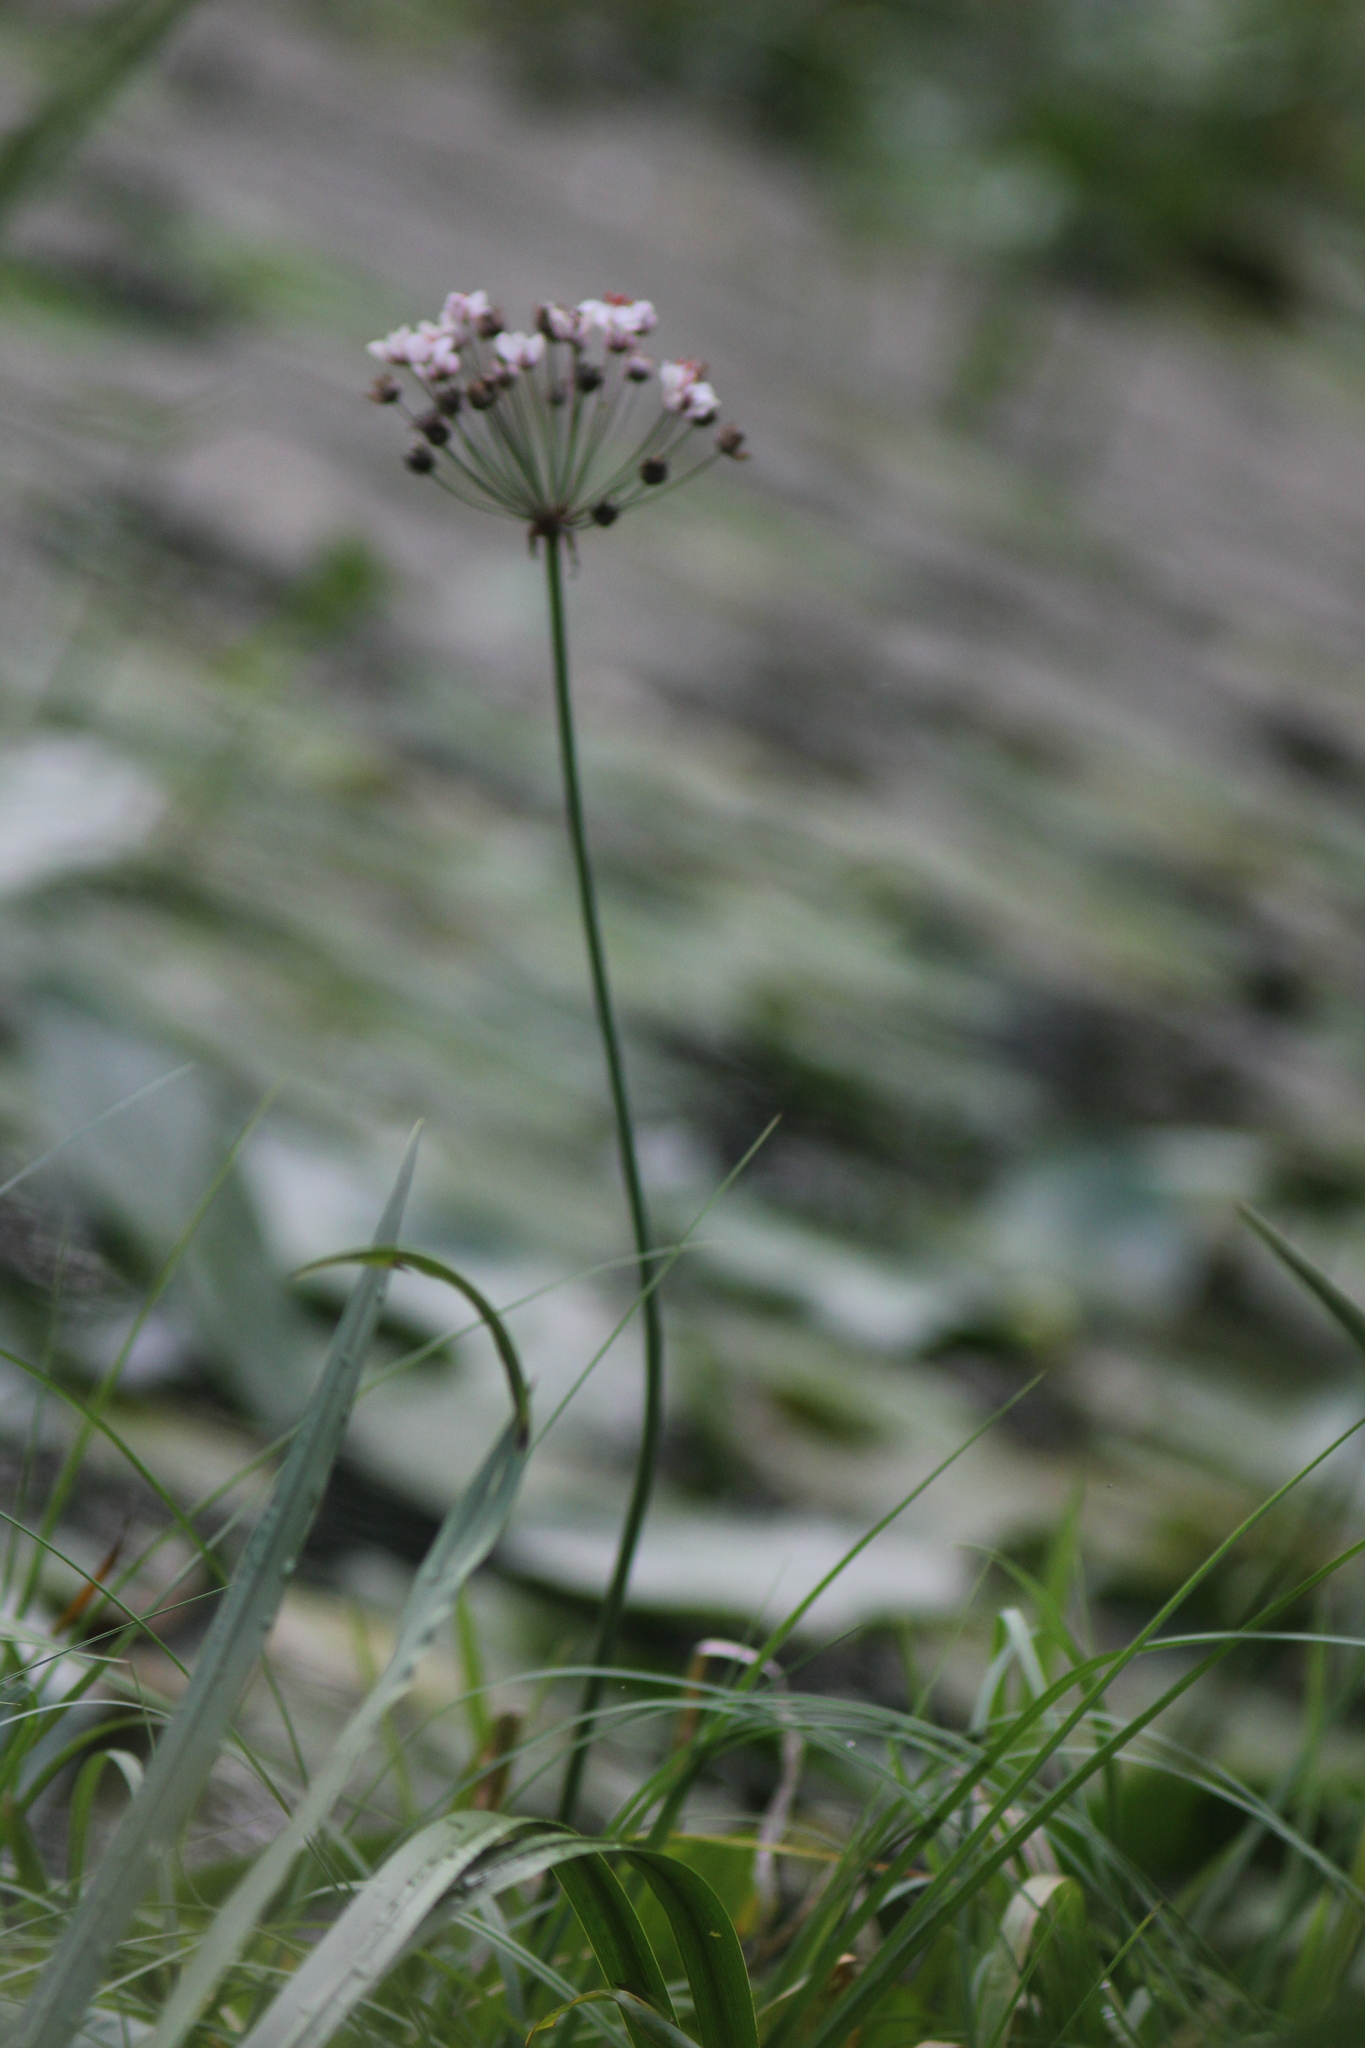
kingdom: Plantae
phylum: Tracheophyta
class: Liliopsida
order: Alismatales
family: Butomaceae
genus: Butomus
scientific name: Butomus umbellatus
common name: Flowering-rush
